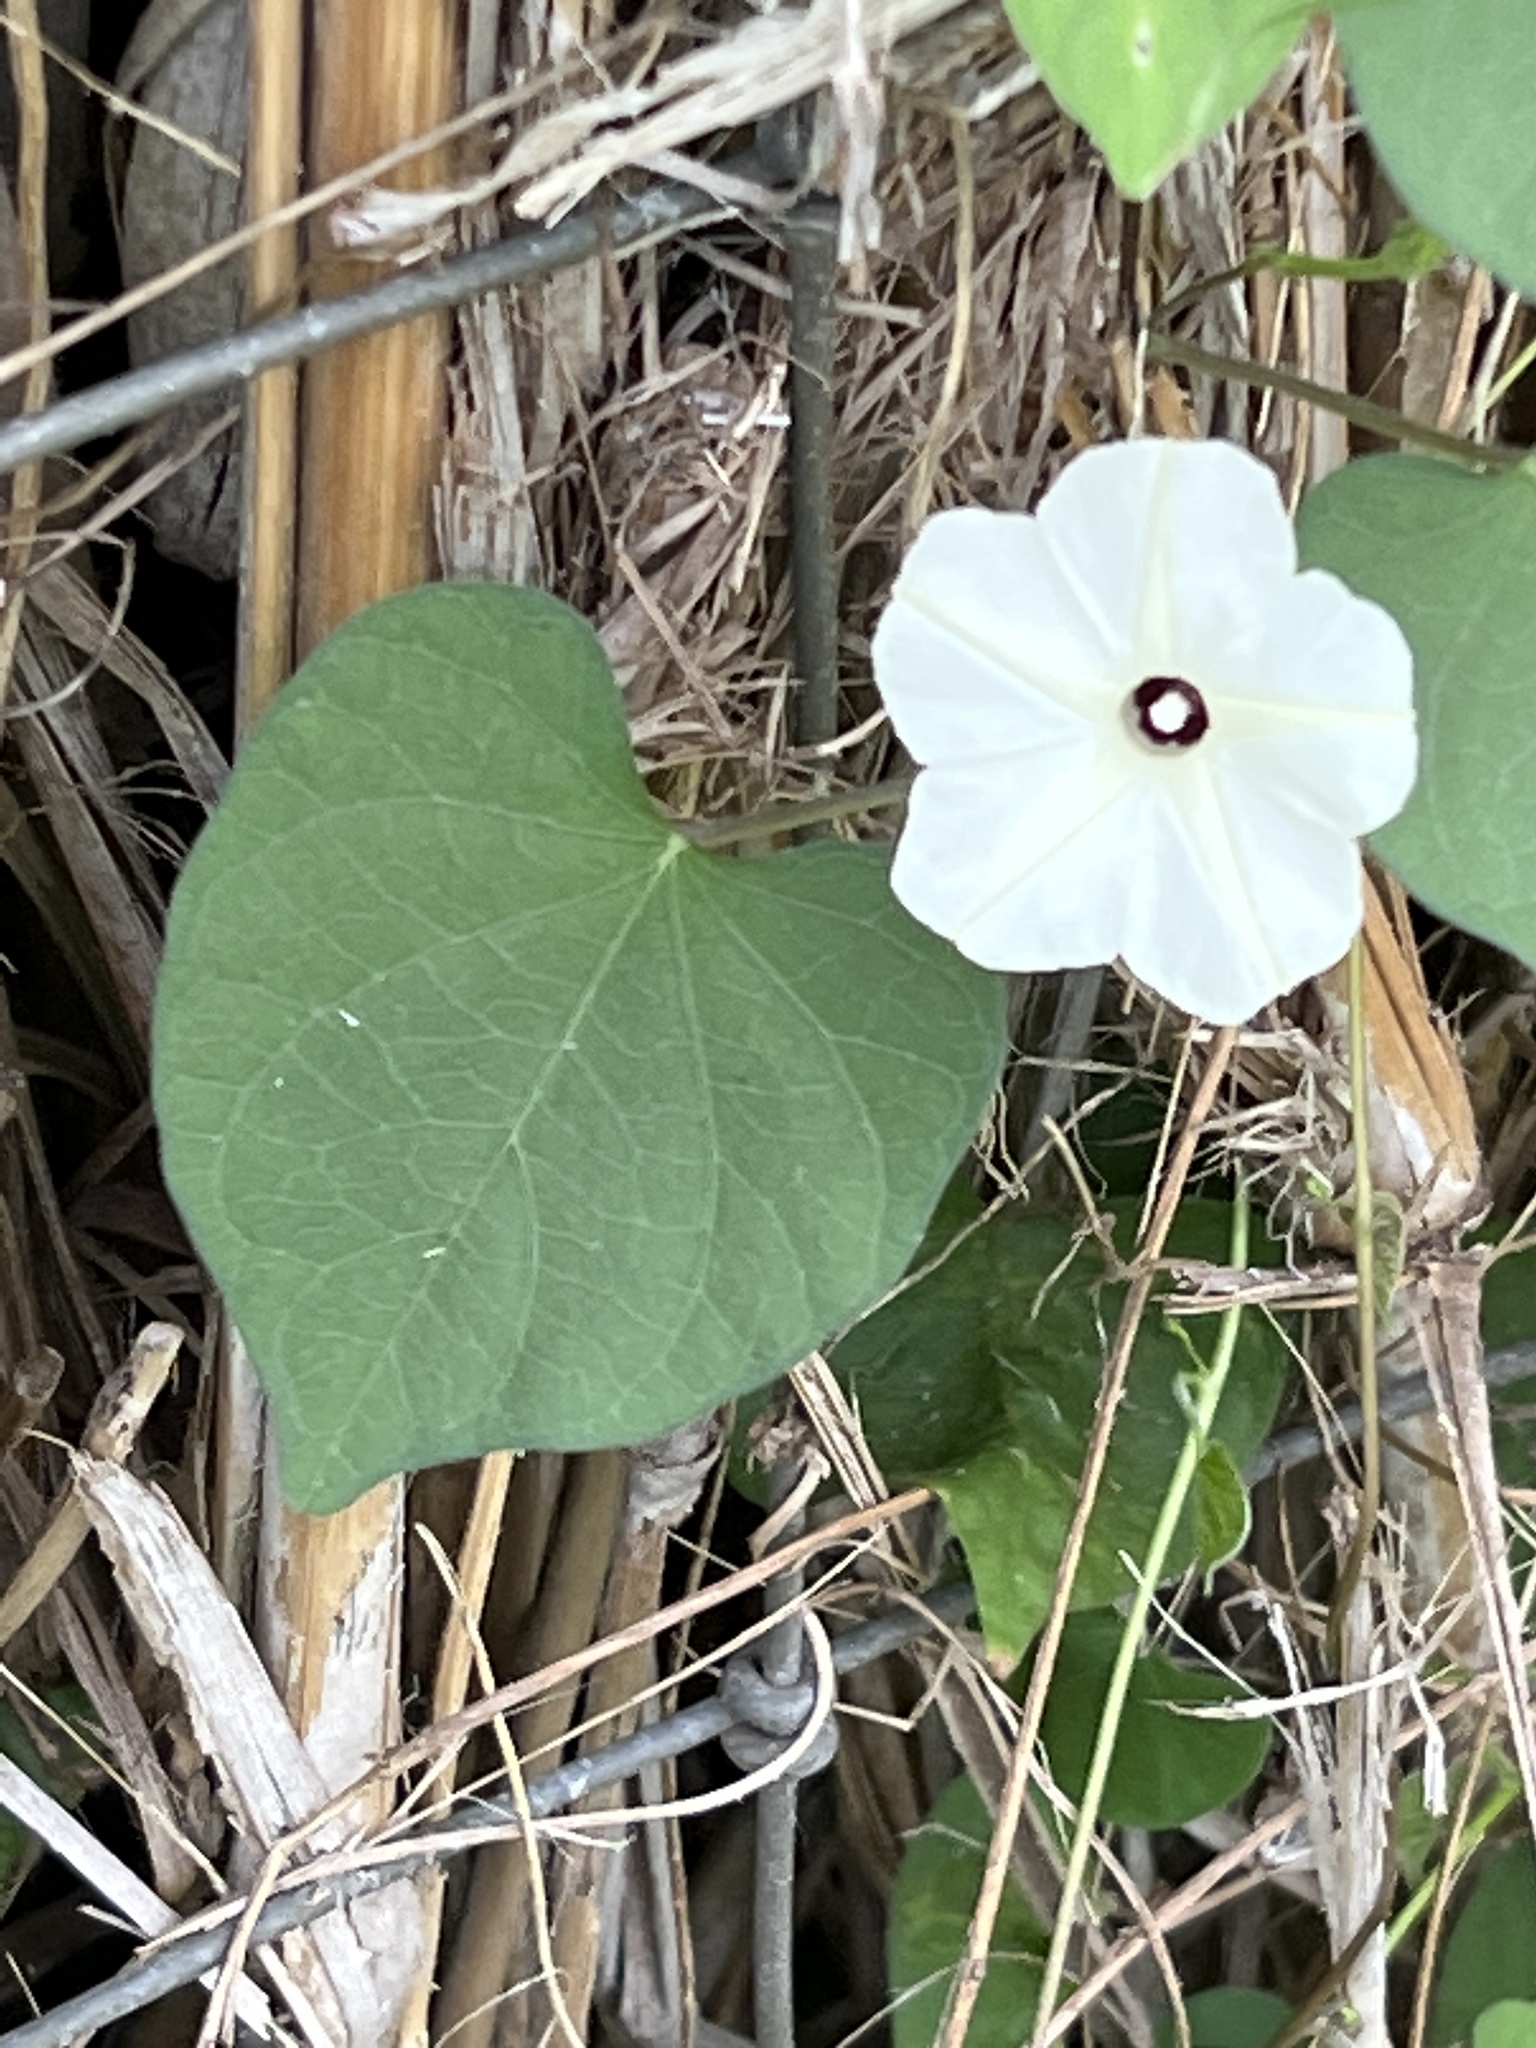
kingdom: Plantae
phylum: Tracheophyta
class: Magnoliopsida
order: Solanales
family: Convolvulaceae
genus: Ipomoea
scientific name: Ipomoea obscura
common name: Obscure morning-glory
